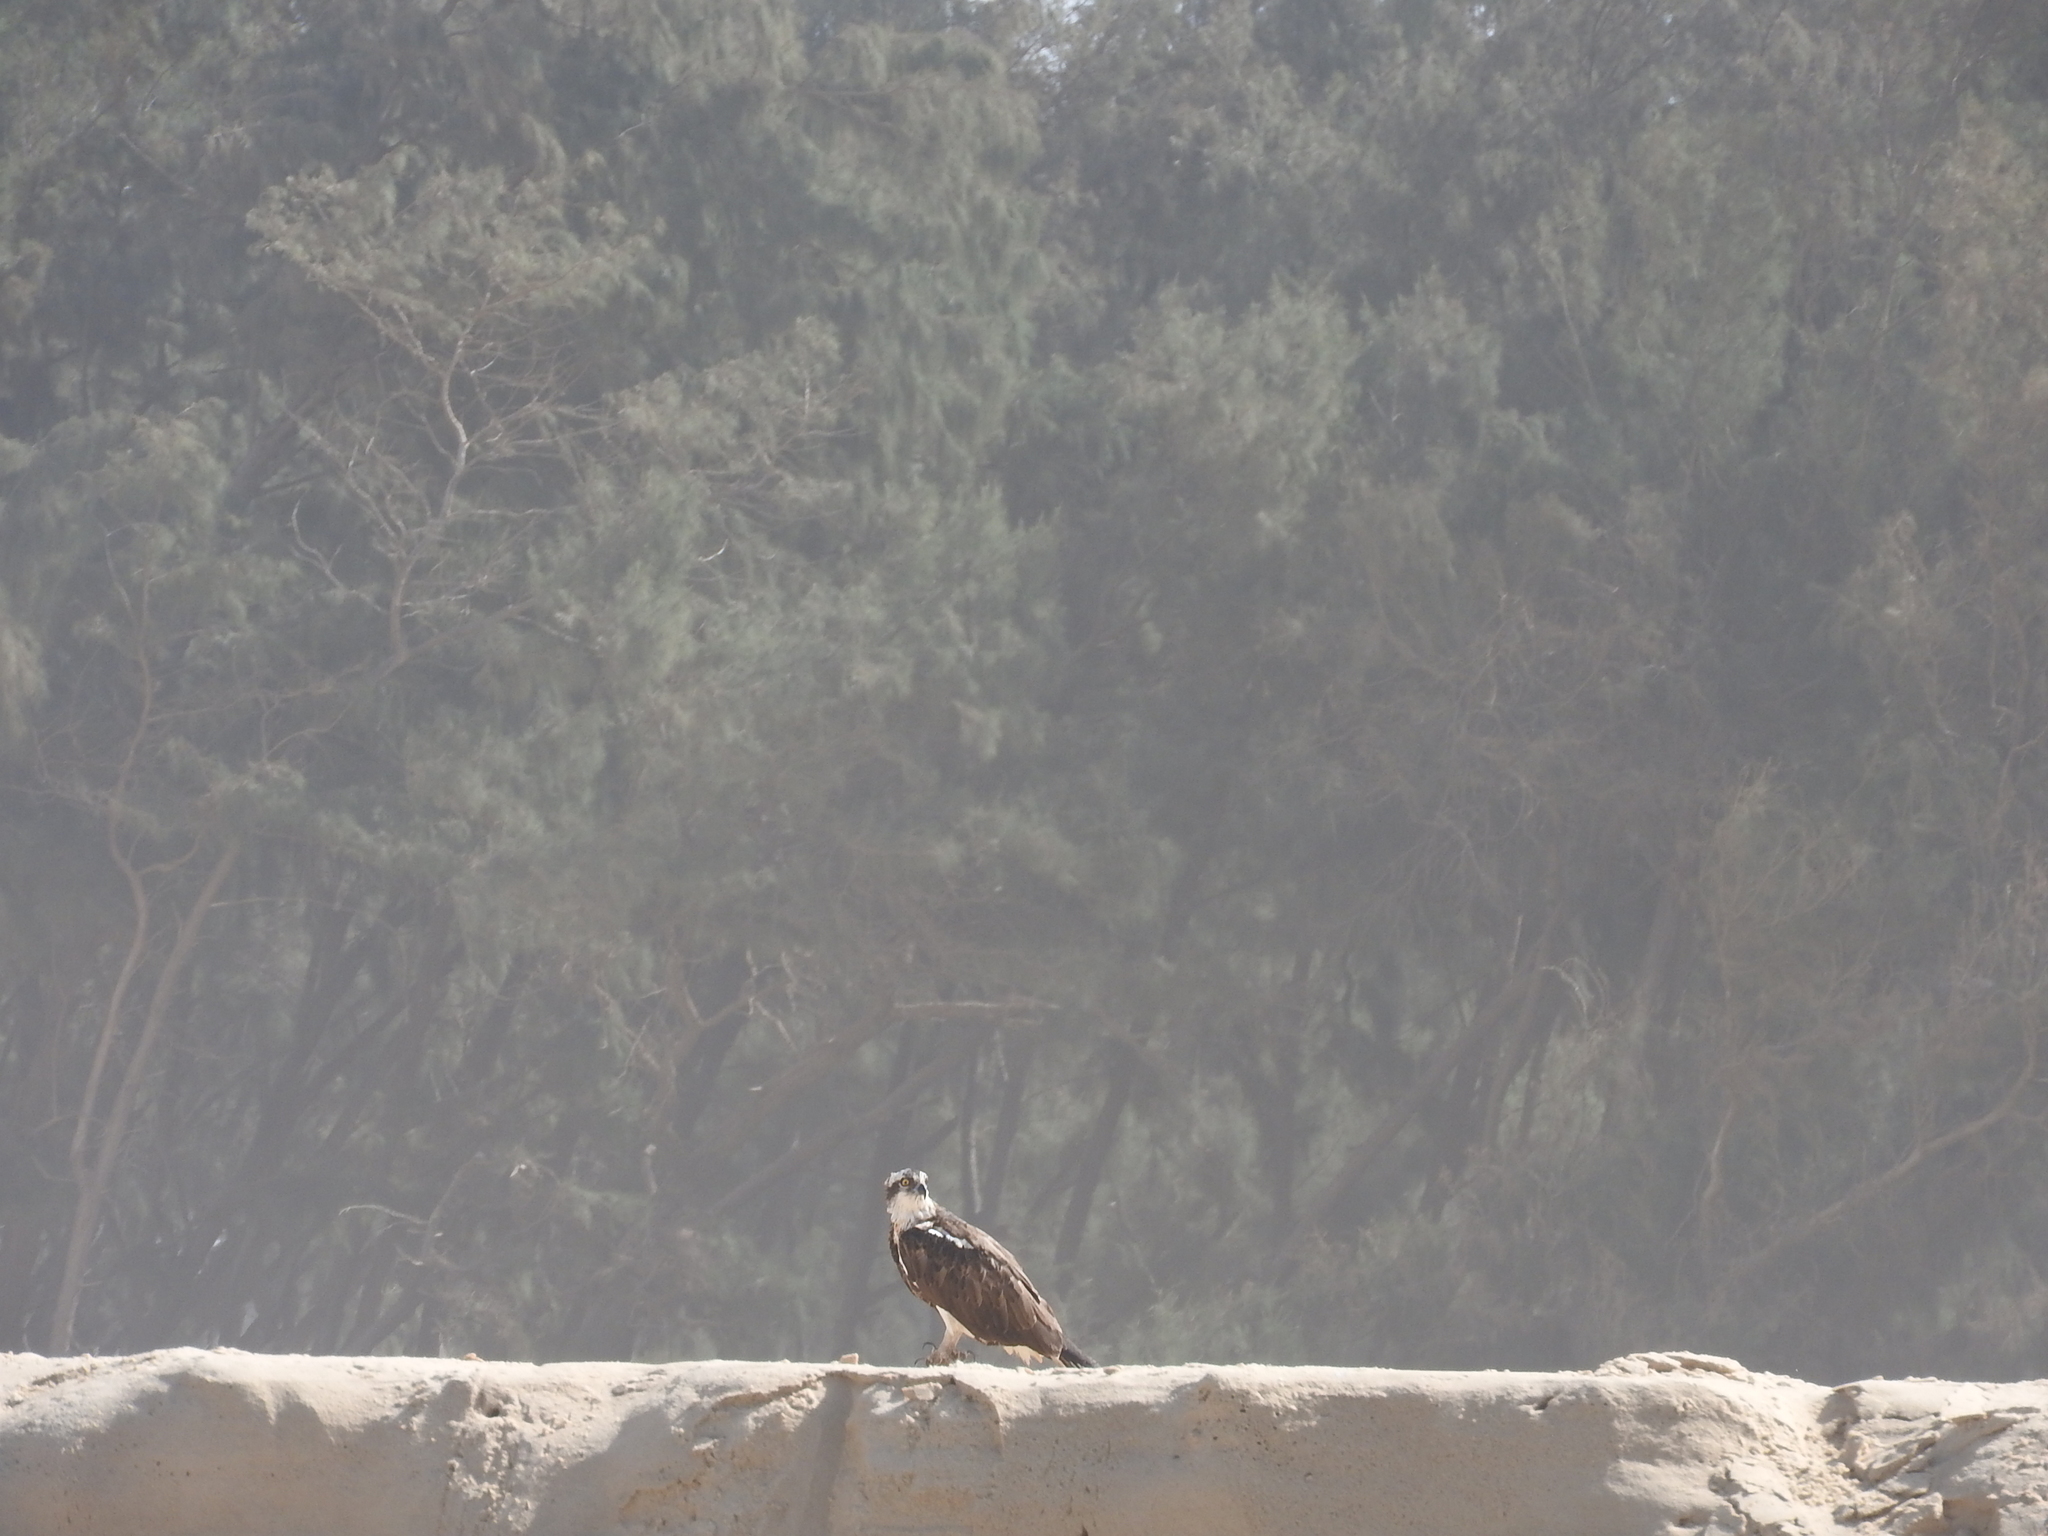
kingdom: Animalia
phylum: Chordata
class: Aves
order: Accipitriformes
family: Pandionidae
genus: Pandion
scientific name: Pandion haliaetus
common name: Osprey
